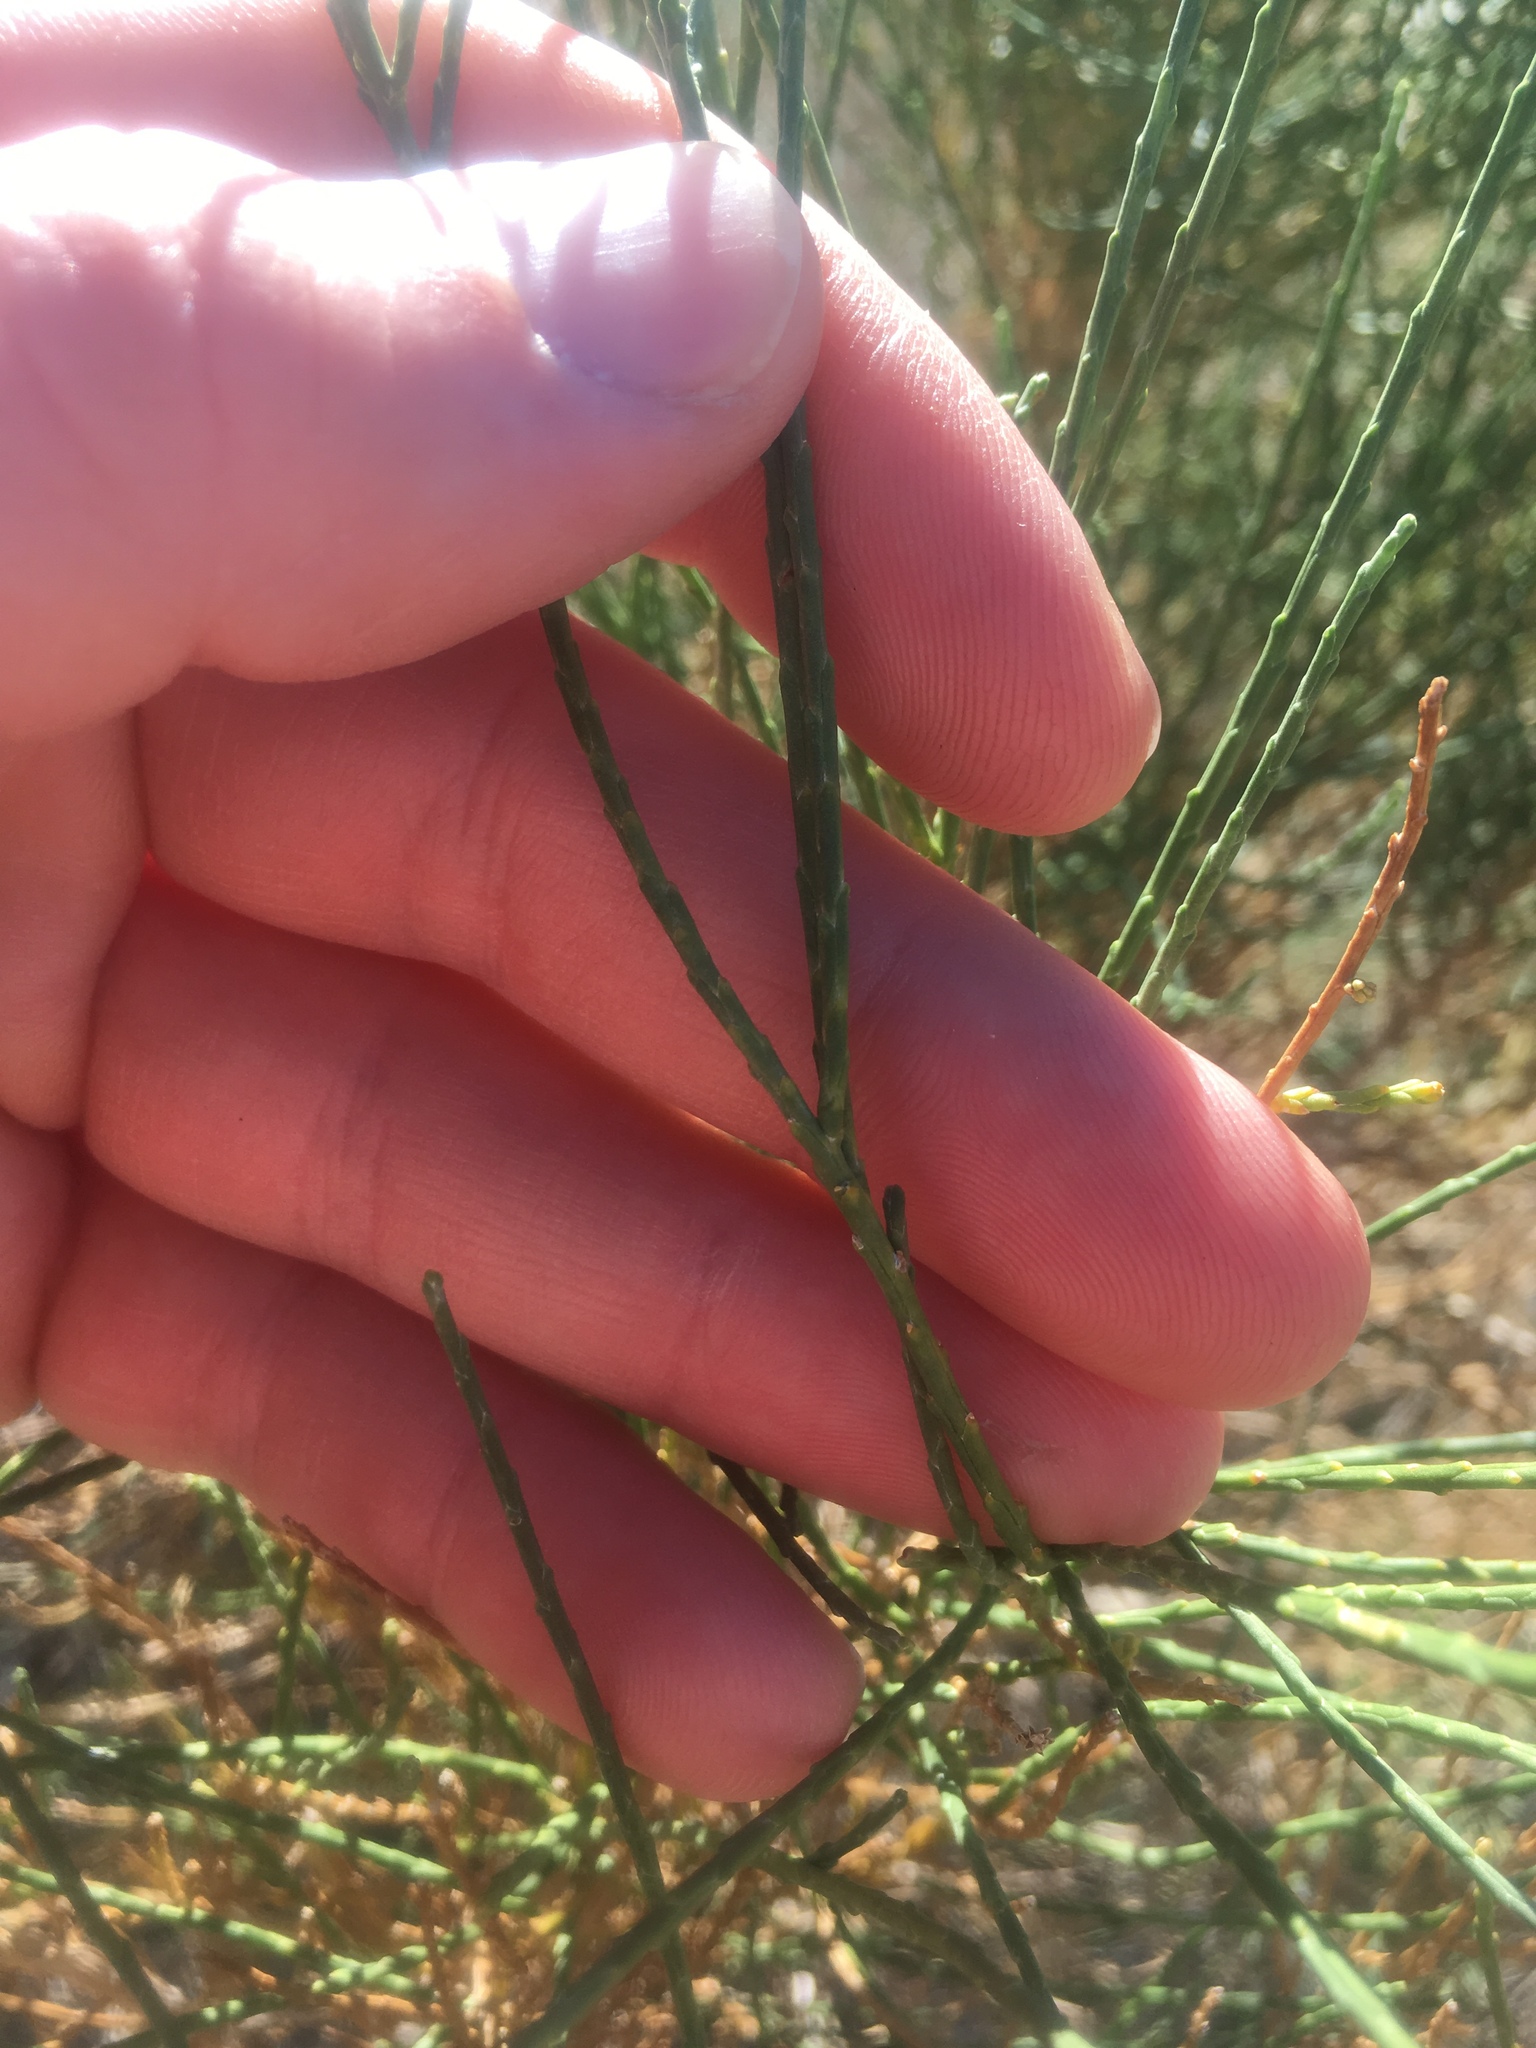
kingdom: Plantae
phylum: Tracheophyta
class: Magnoliopsida
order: Asterales
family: Asteraceae
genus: Lepidospartum
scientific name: Lepidospartum squamatum
